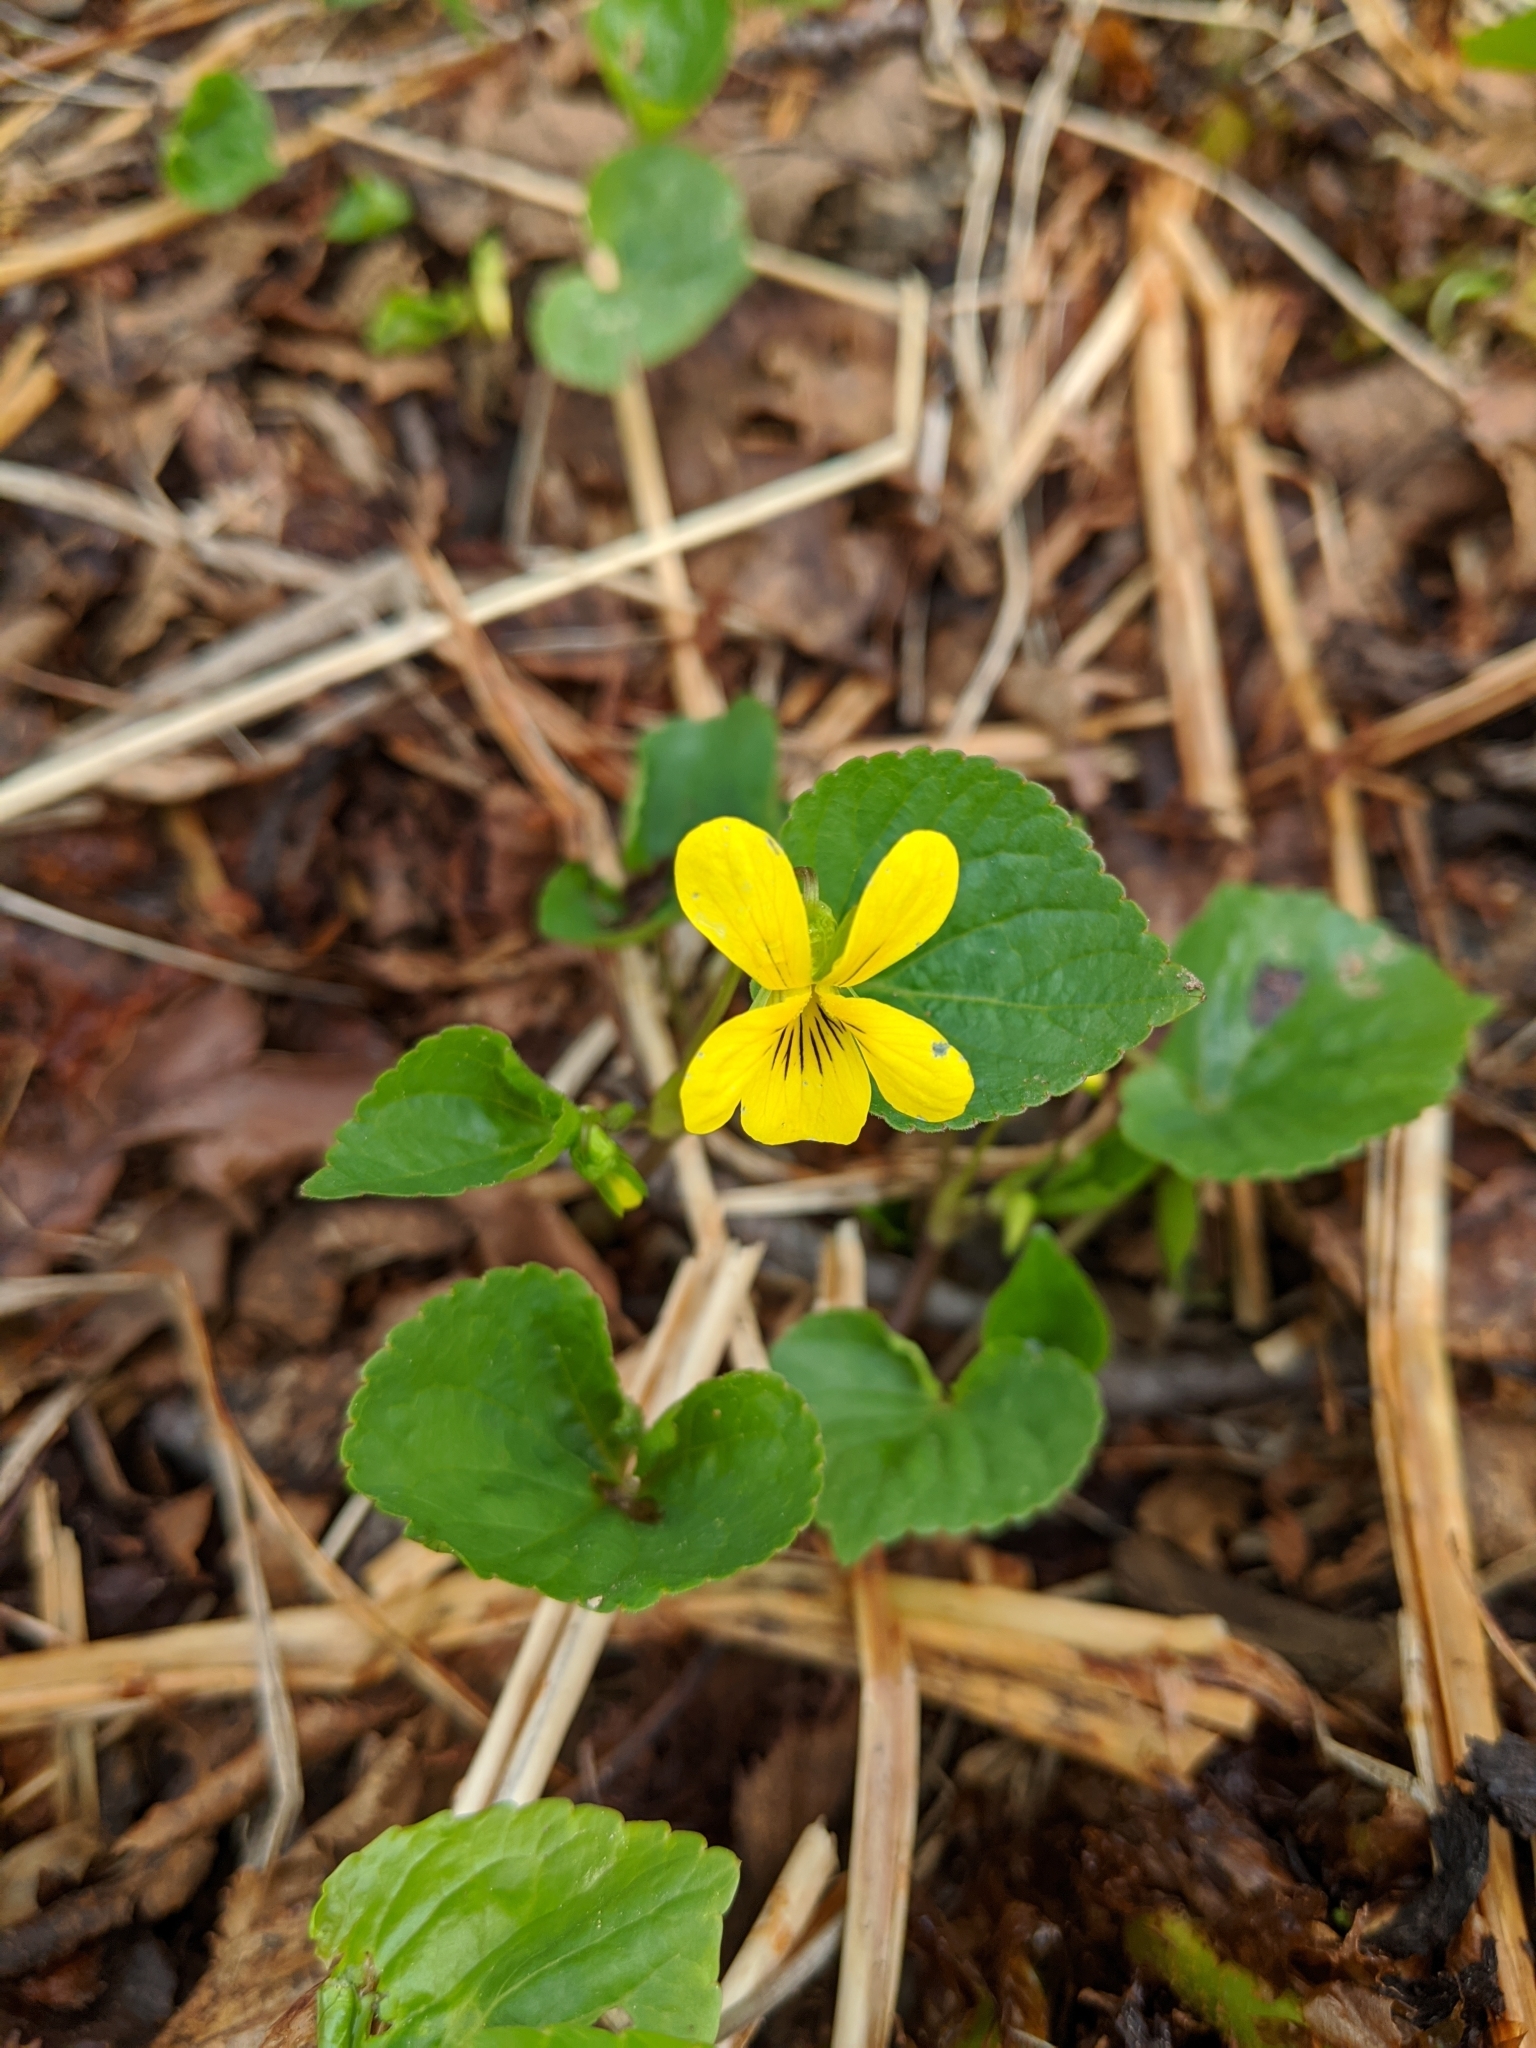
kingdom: Plantae
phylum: Tracheophyta
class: Magnoliopsida
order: Malpighiales
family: Violaceae
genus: Viola
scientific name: Viola glabella
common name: Stream violet
